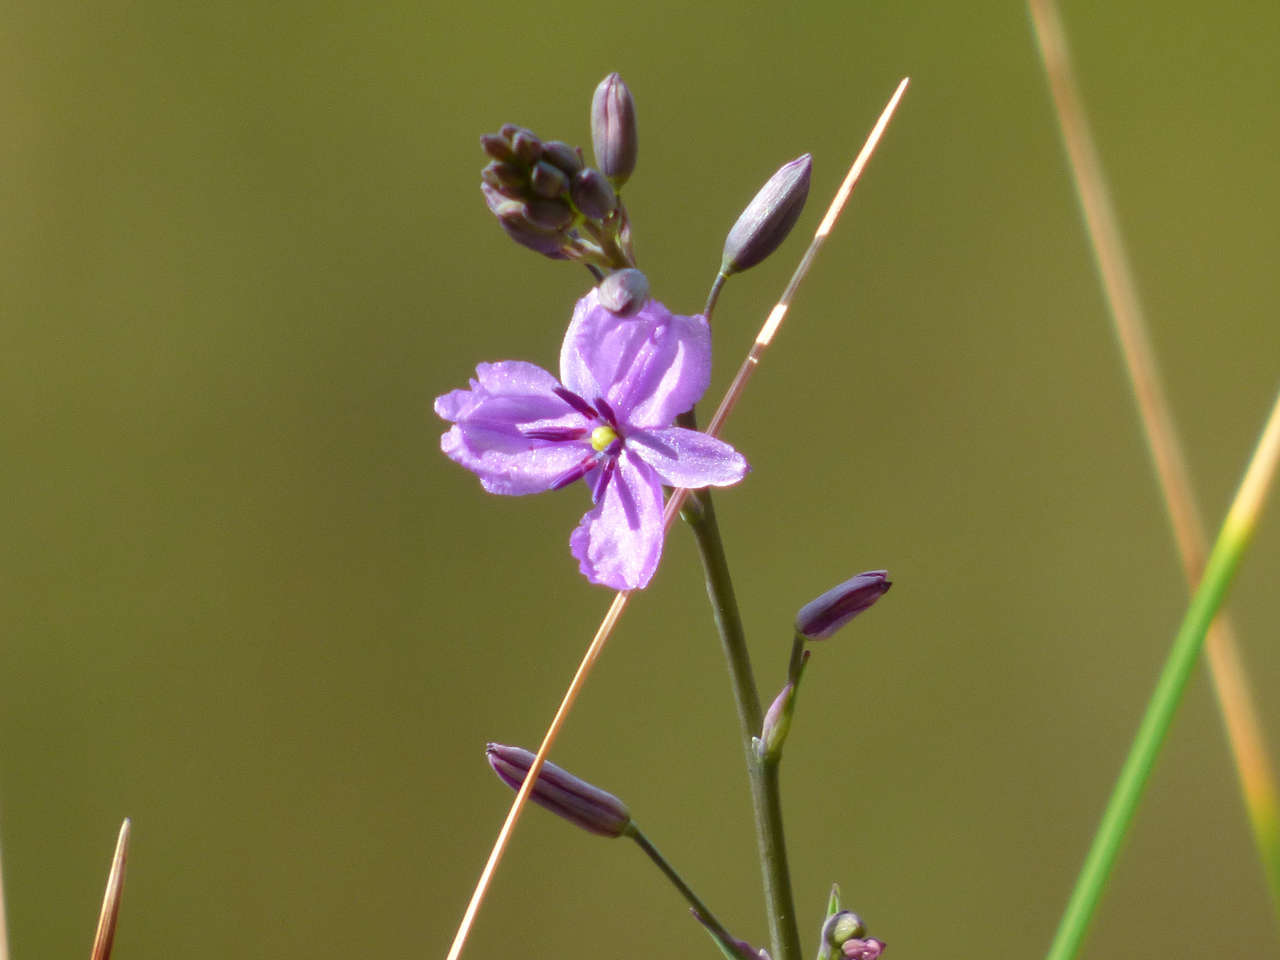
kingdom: Plantae
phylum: Tracheophyta
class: Liliopsida
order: Asparagales
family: Asparagaceae
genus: Arthropodium
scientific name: Arthropodium strictum
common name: Chocolate-lily
